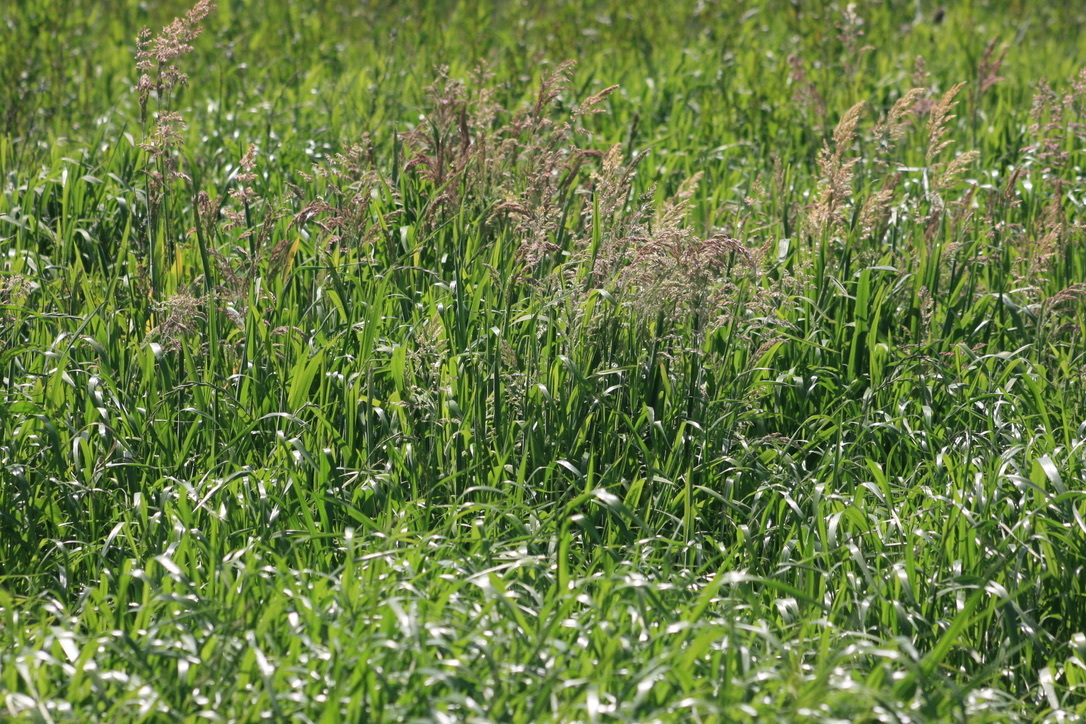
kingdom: Plantae
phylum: Tracheophyta
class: Liliopsida
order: Poales
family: Poaceae
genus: Holcus
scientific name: Holcus lanatus
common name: Yorkshire-fog
